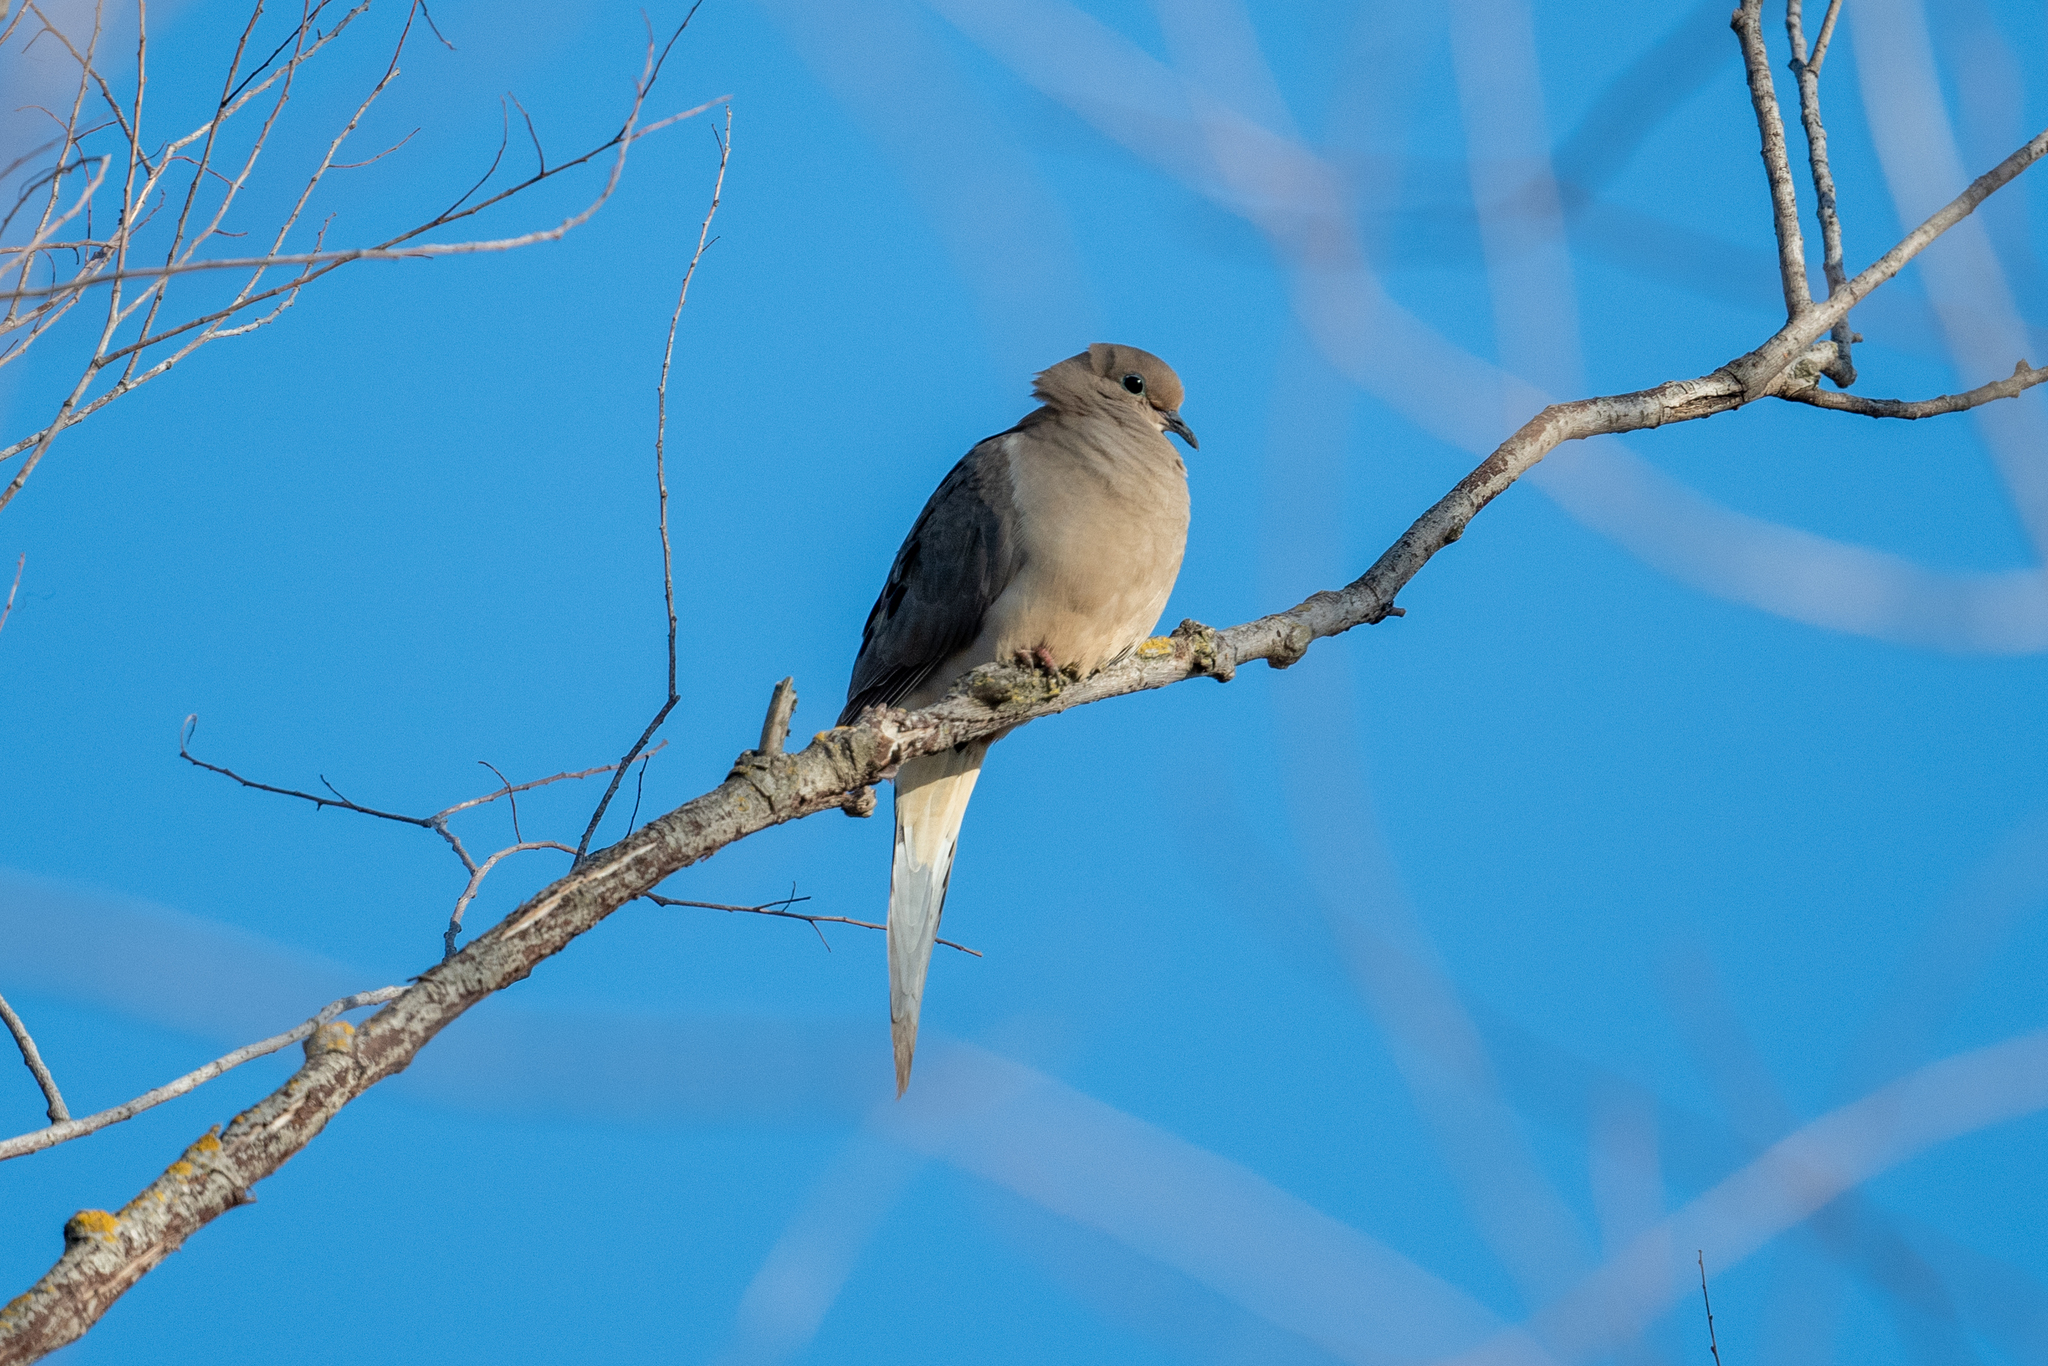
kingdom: Animalia
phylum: Chordata
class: Aves
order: Columbiformes
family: Columbidae
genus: Zenaida
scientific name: Zenaida macroura
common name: Mourning dove
